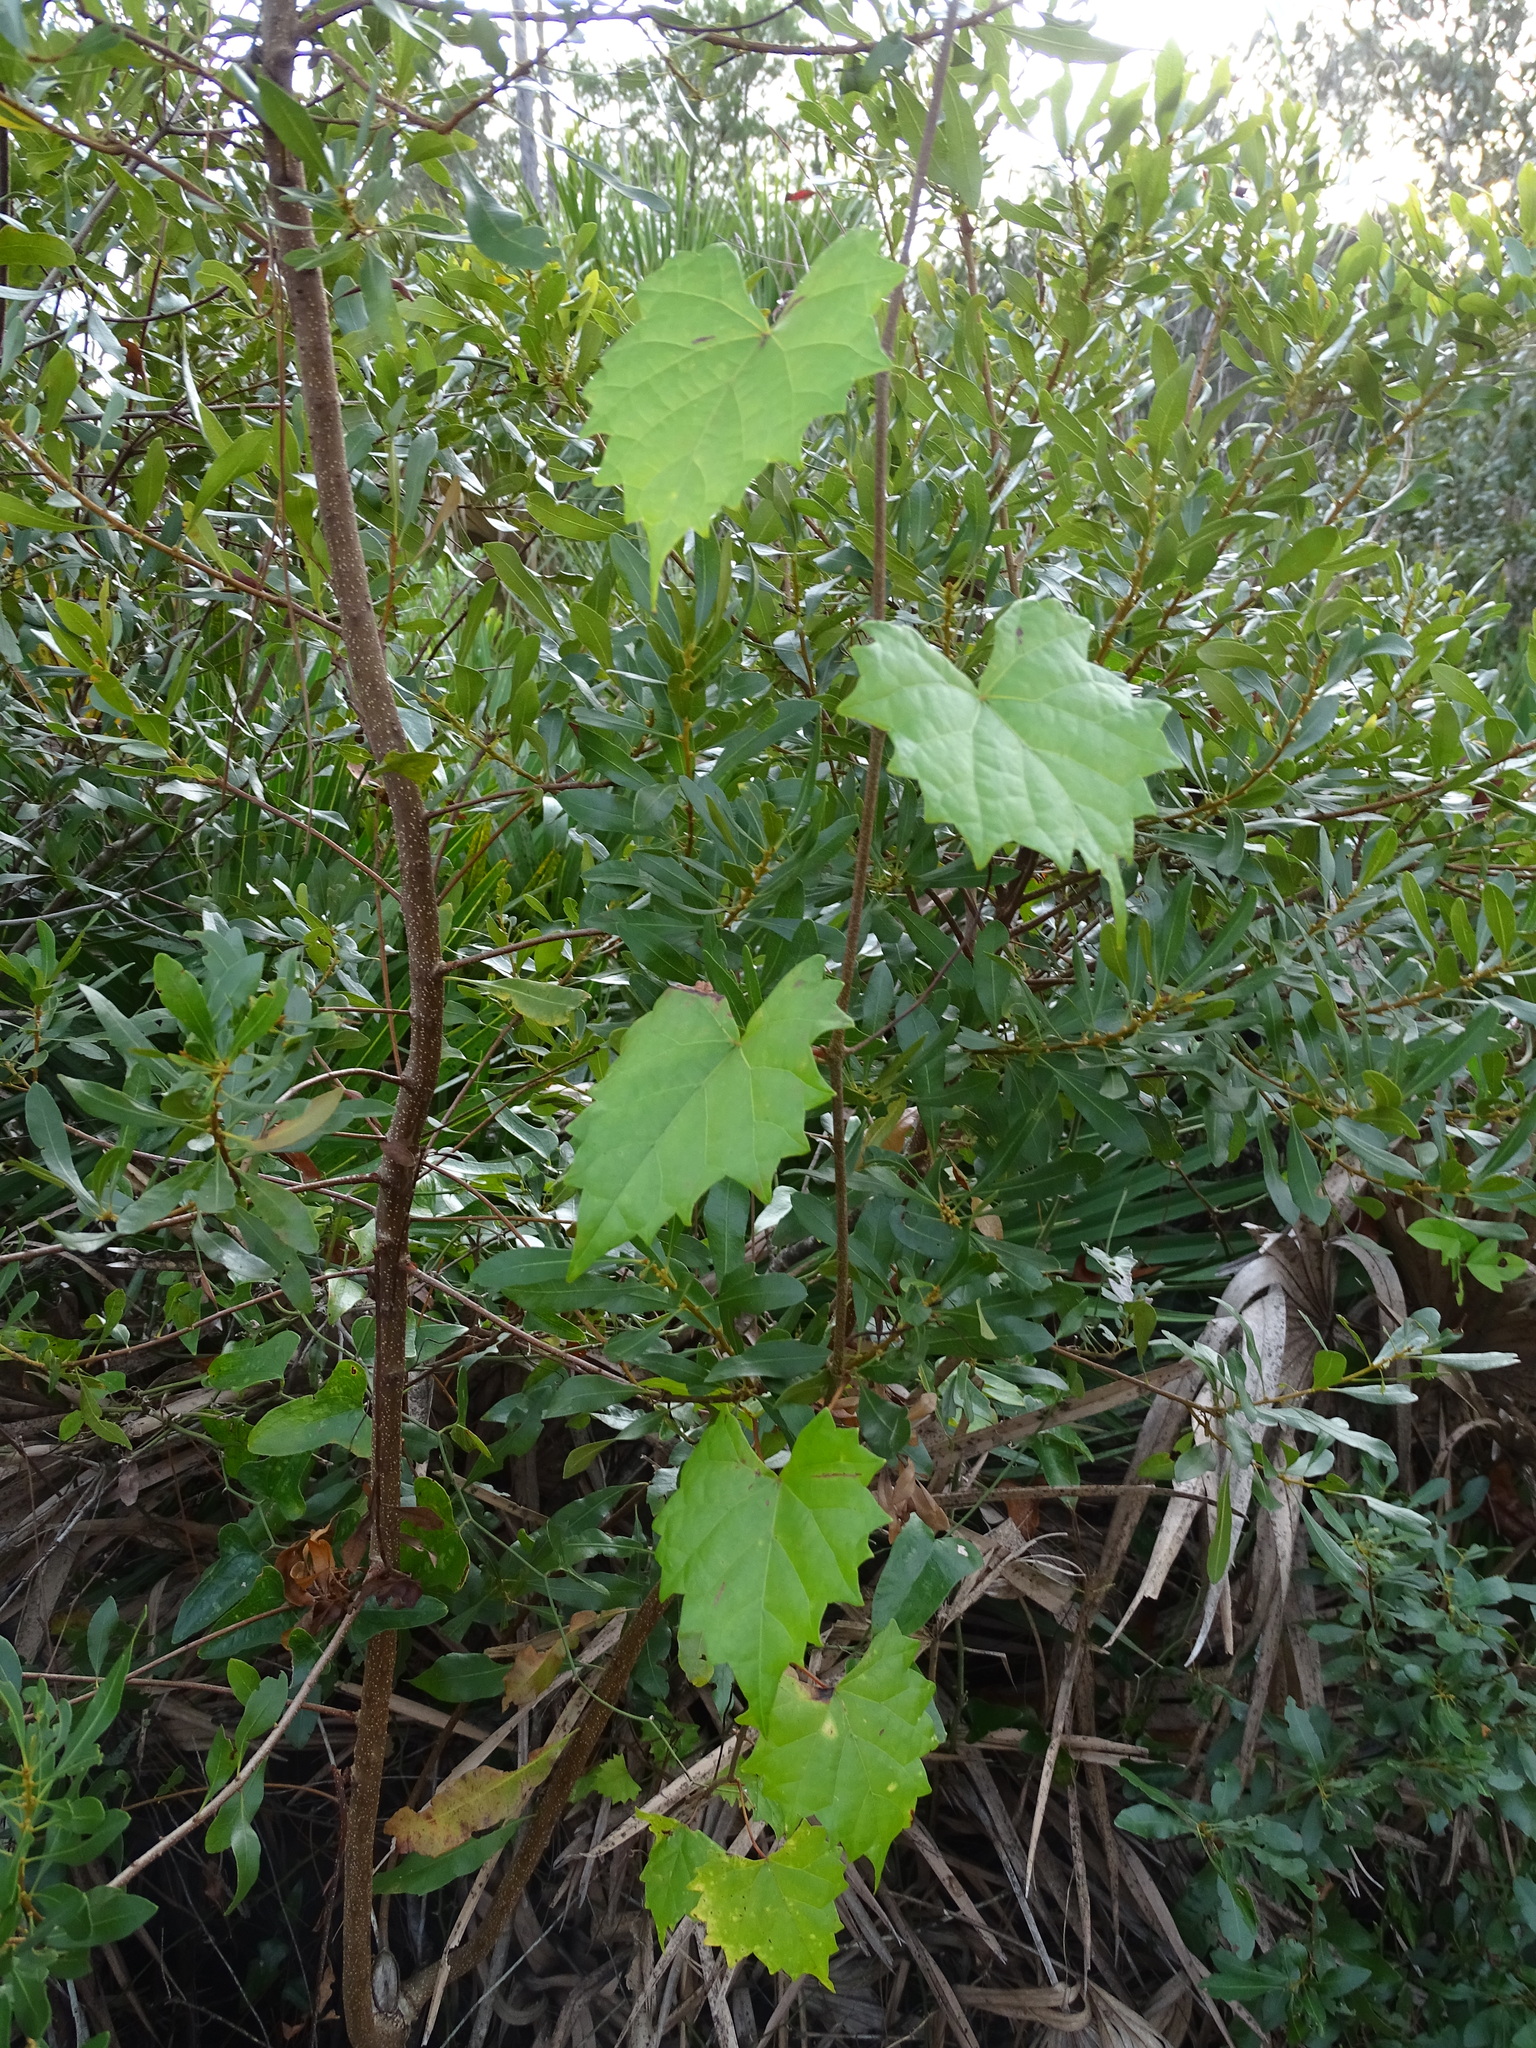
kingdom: Plantae
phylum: Tracheophyta
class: Magnoliopsida
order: Vitales
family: Vitaceae
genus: Vitis
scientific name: Vitis rotundifolia
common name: Muscadine grape
